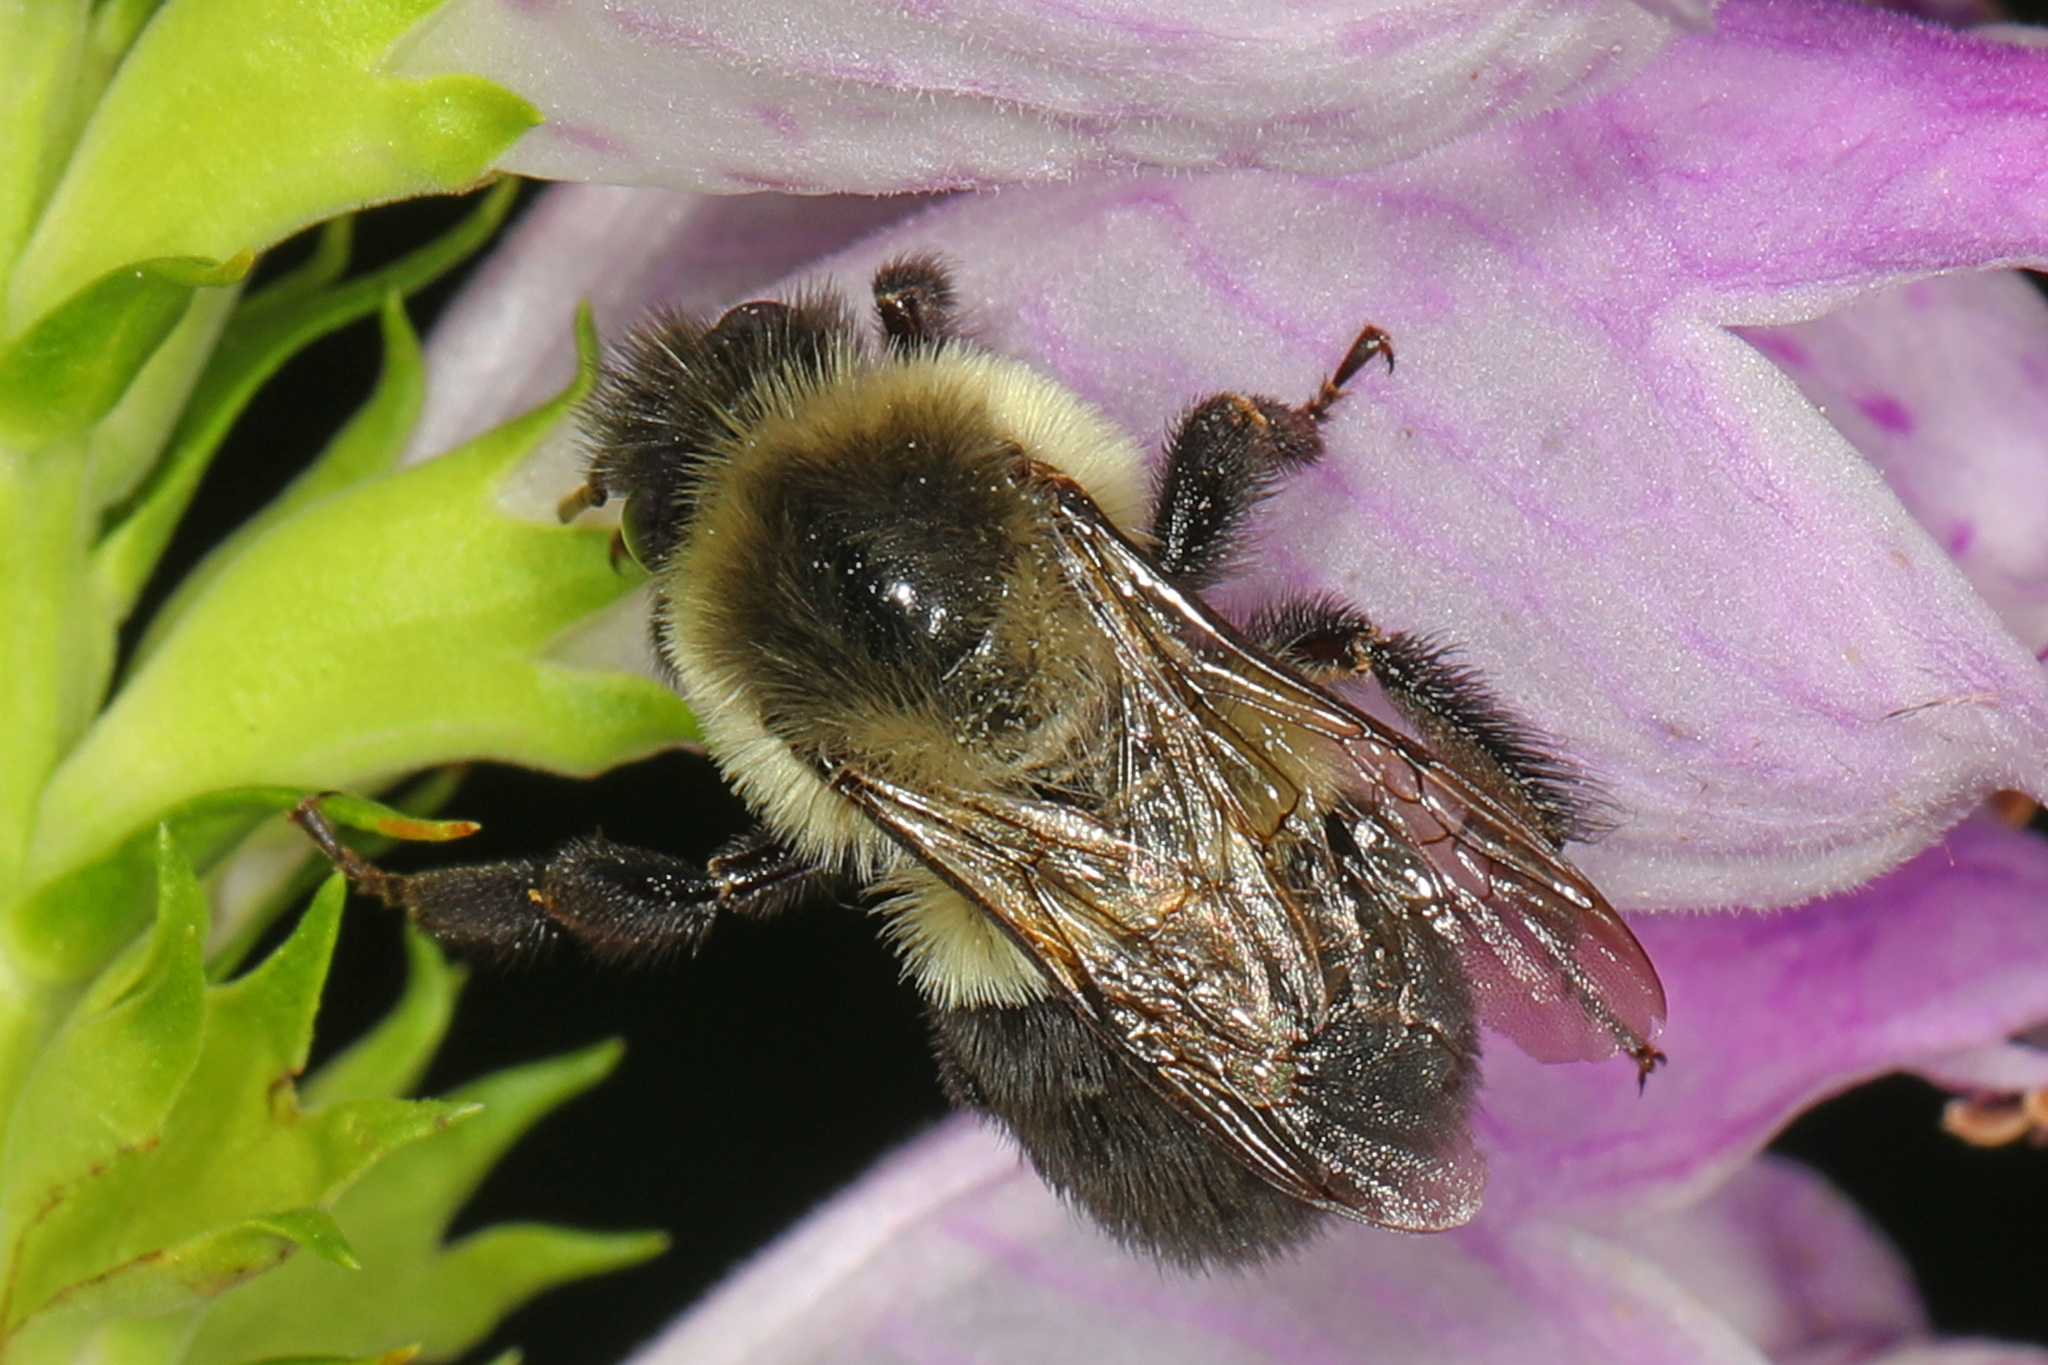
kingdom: Animalia
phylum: Arthropoda
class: Insecta
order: Hymenoptera
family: Apidae
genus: Bombus
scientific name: Bombus impatiens
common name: Common eastern bumble bee
